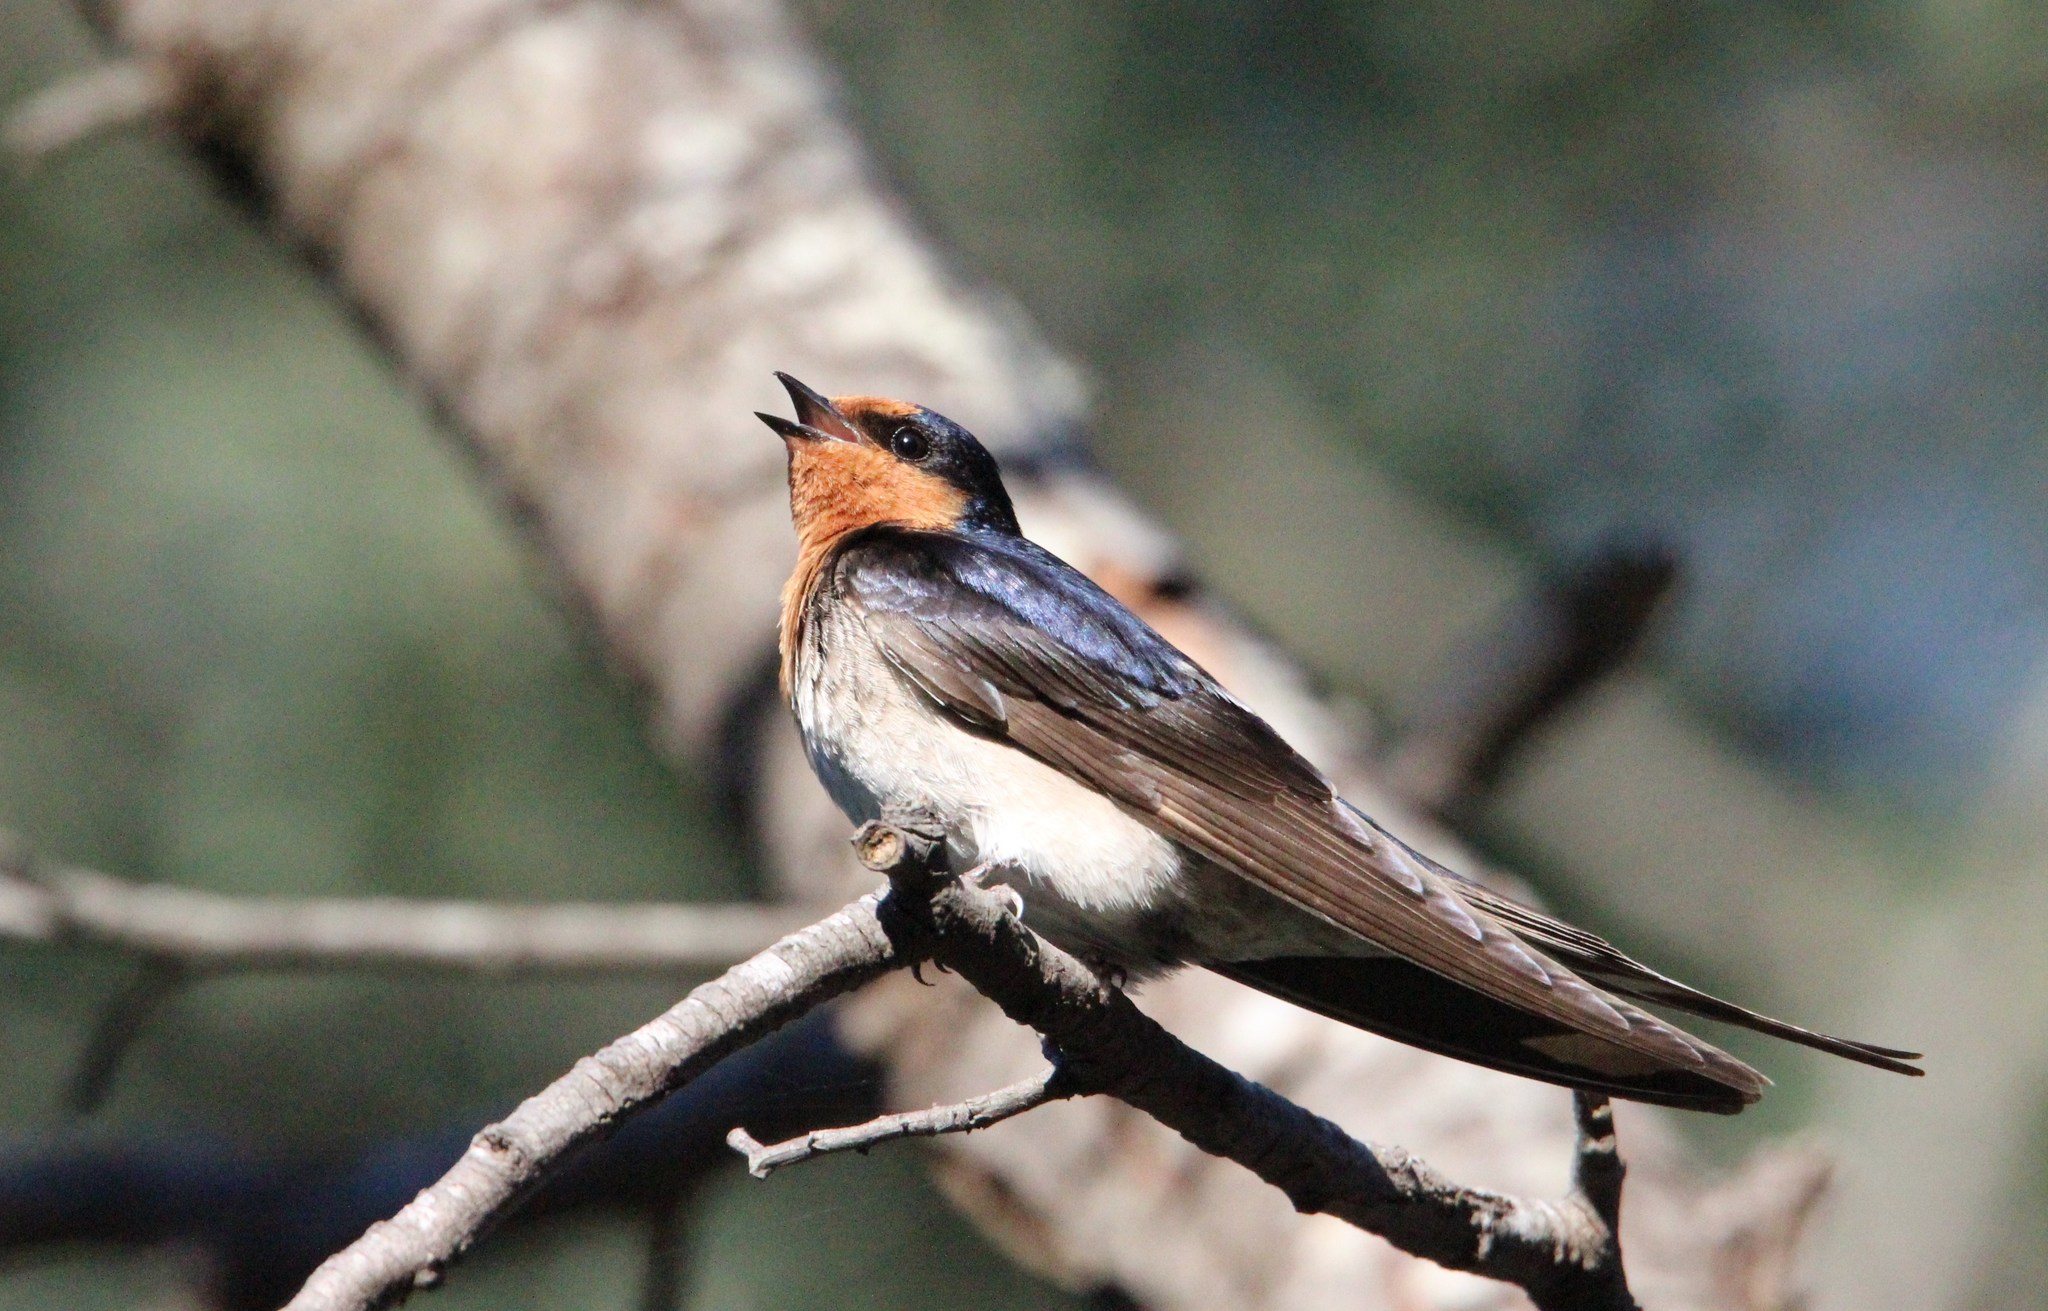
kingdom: Animalia
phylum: Chordata
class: Aves
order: Passeriformes
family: Hirundinidae
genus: Hirundo
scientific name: Hirundo neoxena
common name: Welcome swallow
